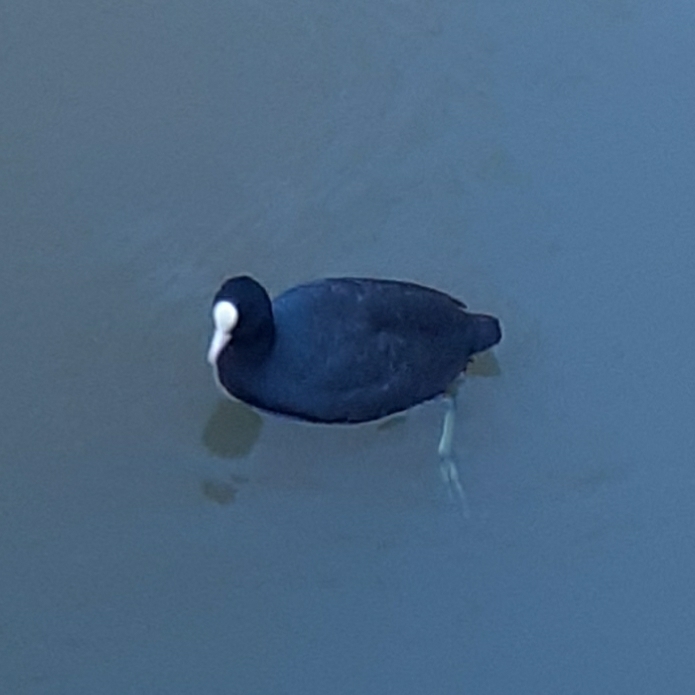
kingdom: Animalia
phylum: Chordata
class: Aves
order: Gruiformes
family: Rallidae
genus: Fulica
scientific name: Fulica atra
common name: Eurasian coot
